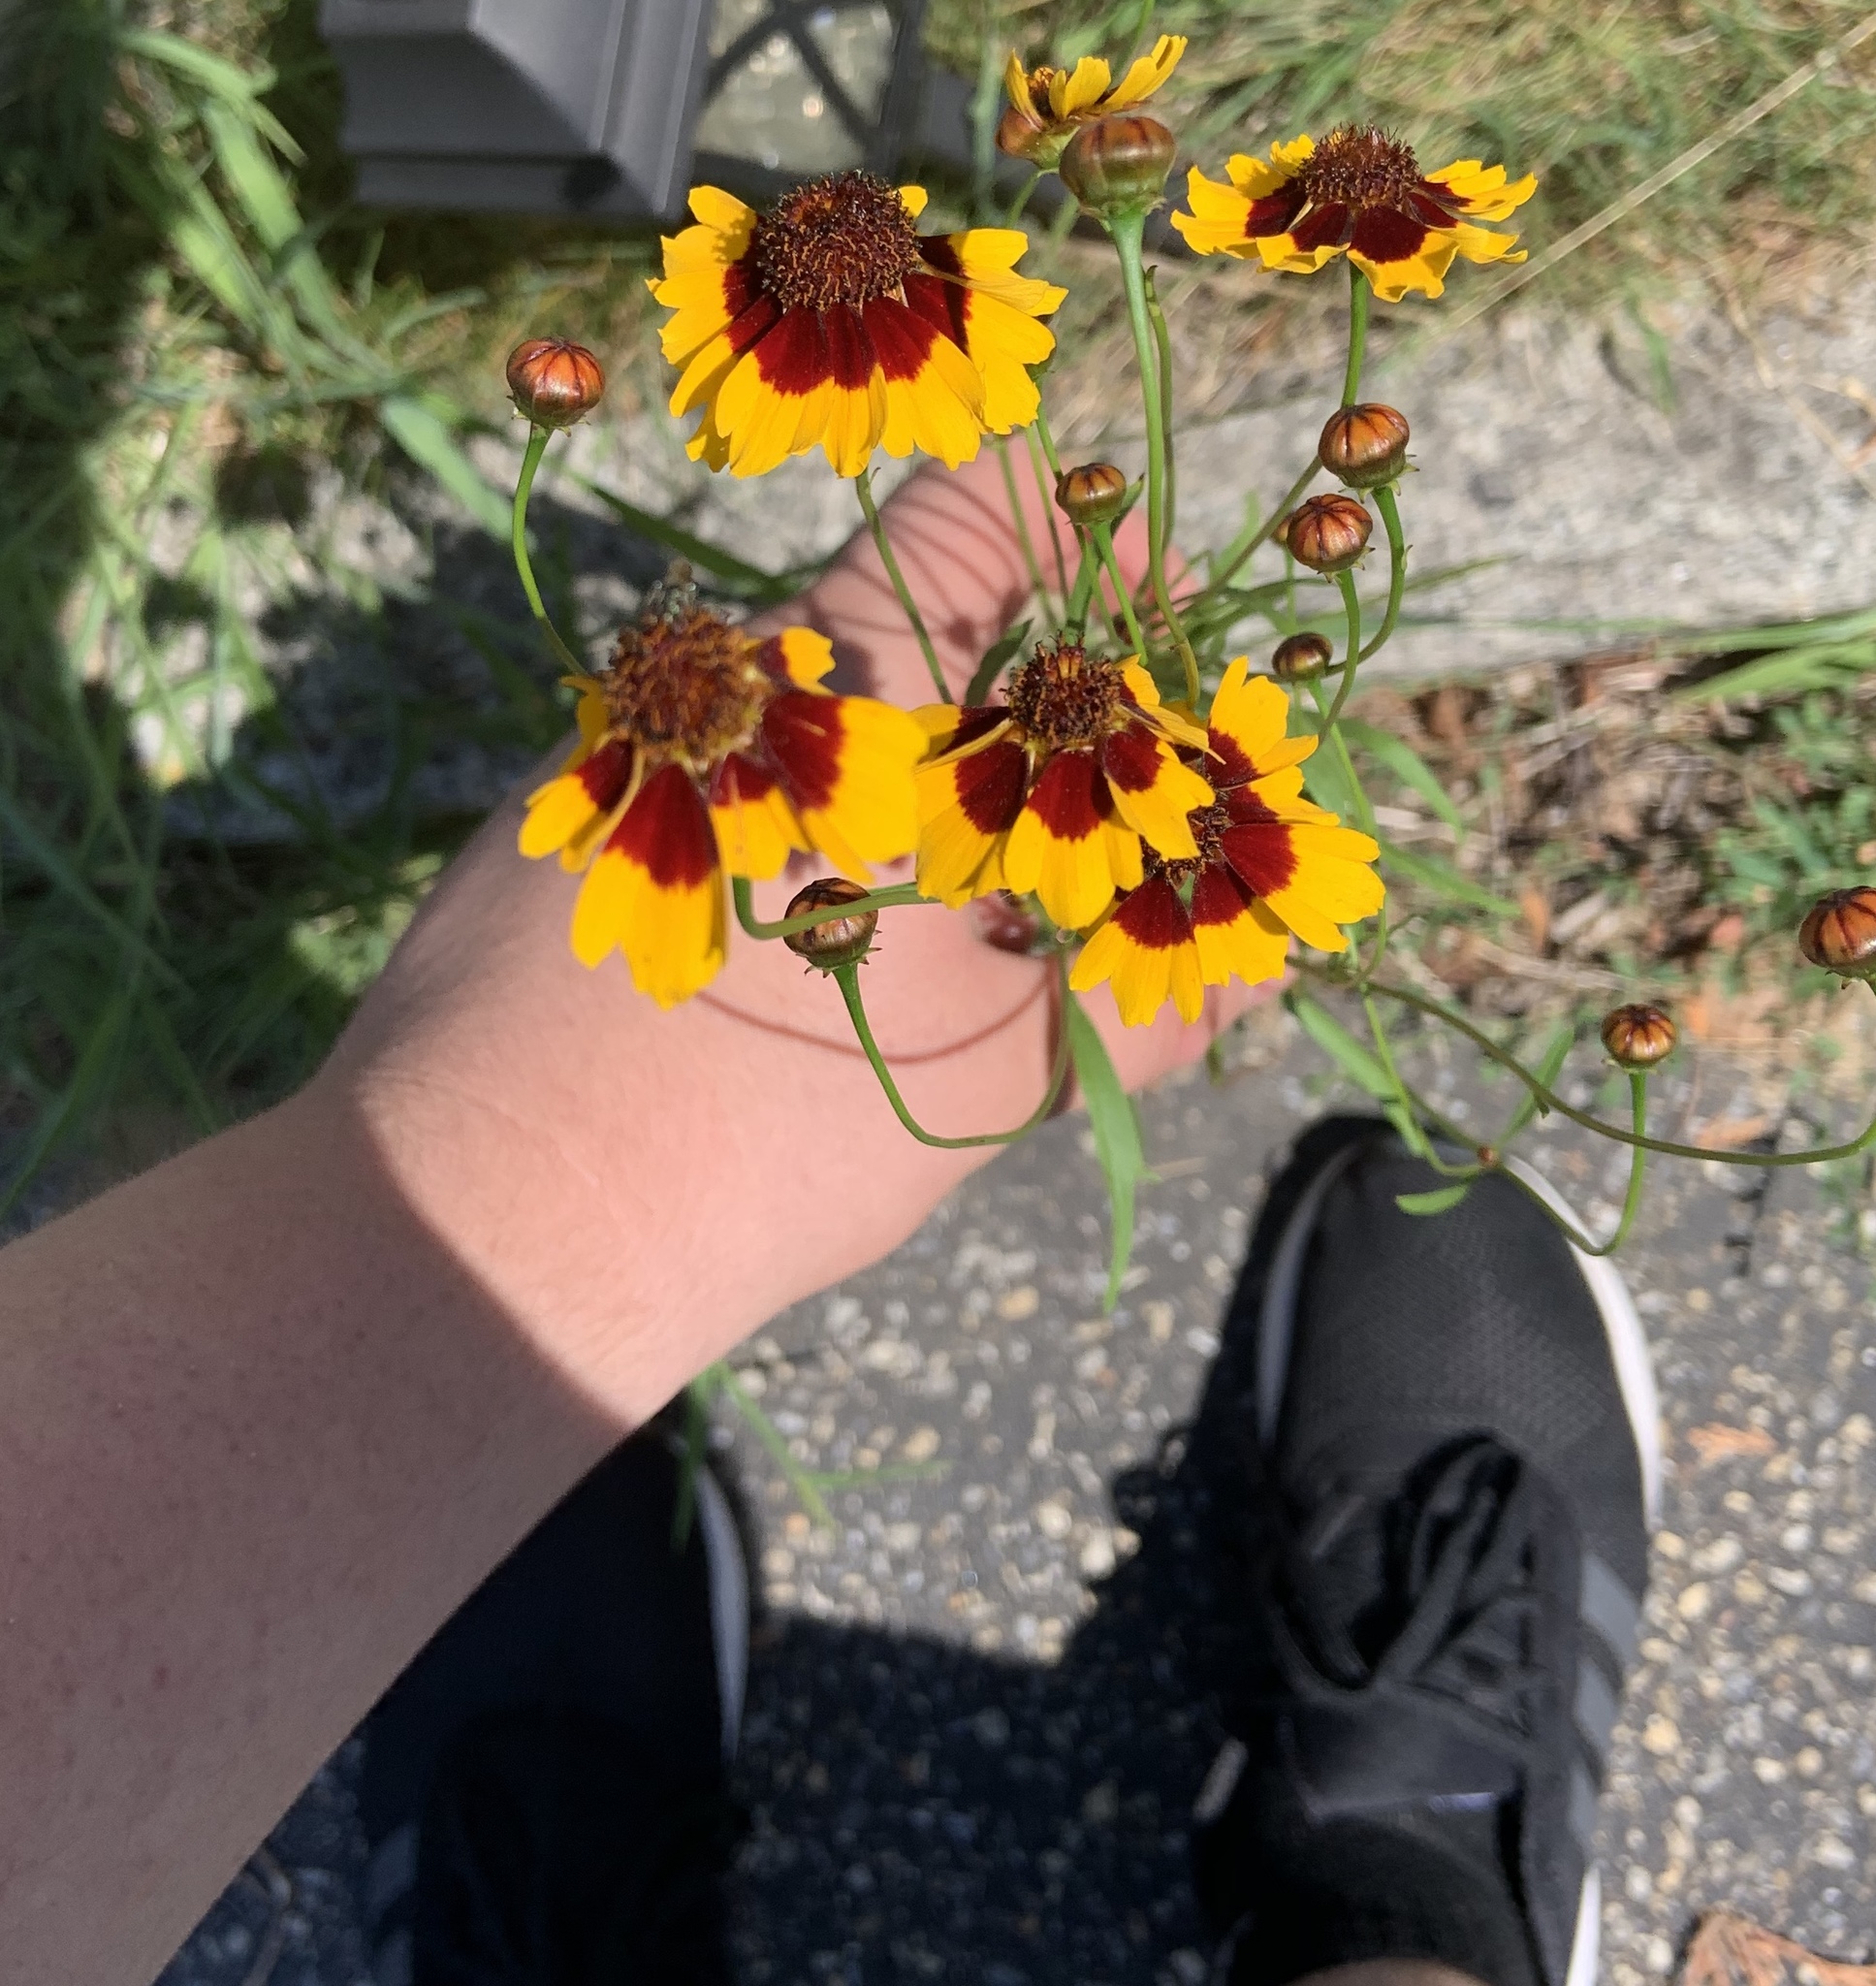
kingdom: Plantae
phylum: Tracheophyta
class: Magnoliopsida
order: Asterales
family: Asteraceae
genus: Coreopsis
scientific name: Coreopsis tinctoria
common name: Garden tickseed
